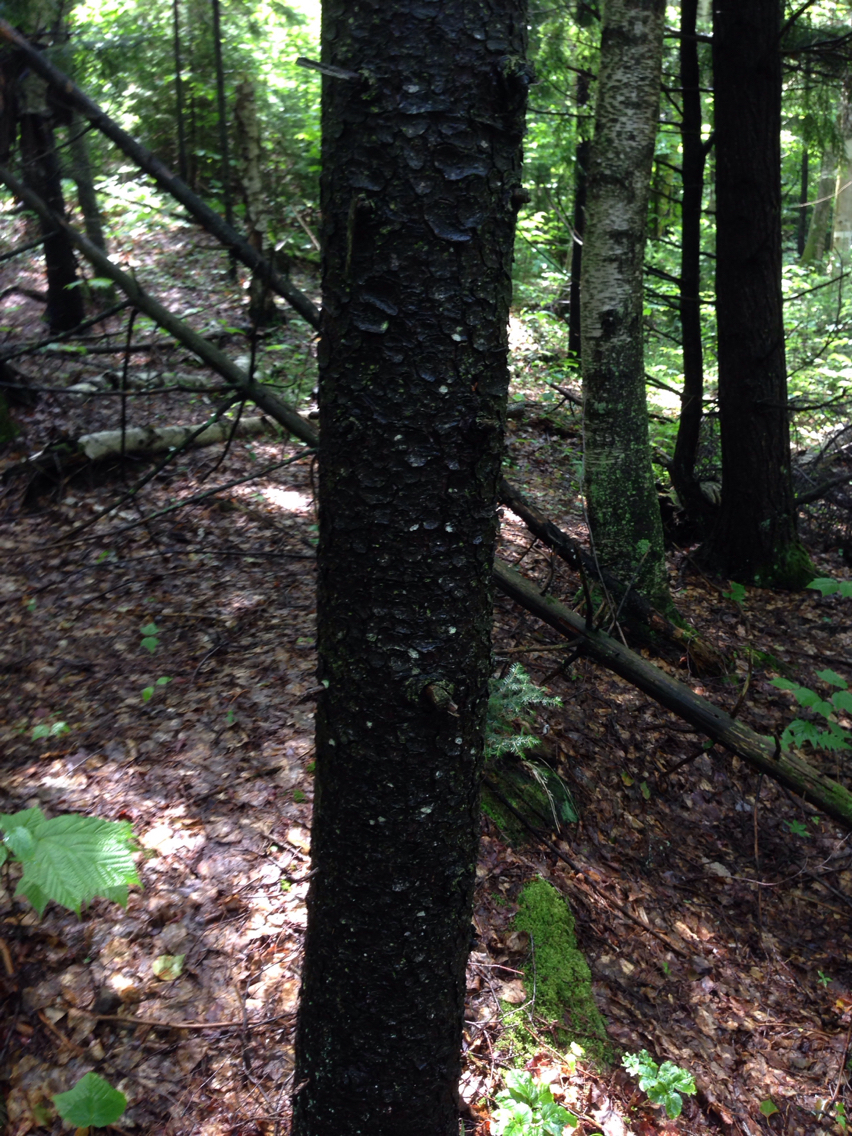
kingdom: Plantae
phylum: Tracheophyta
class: Pinopsida
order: Pinales
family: Pinaceae
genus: Picea
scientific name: Picea rubens
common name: Red spruce
